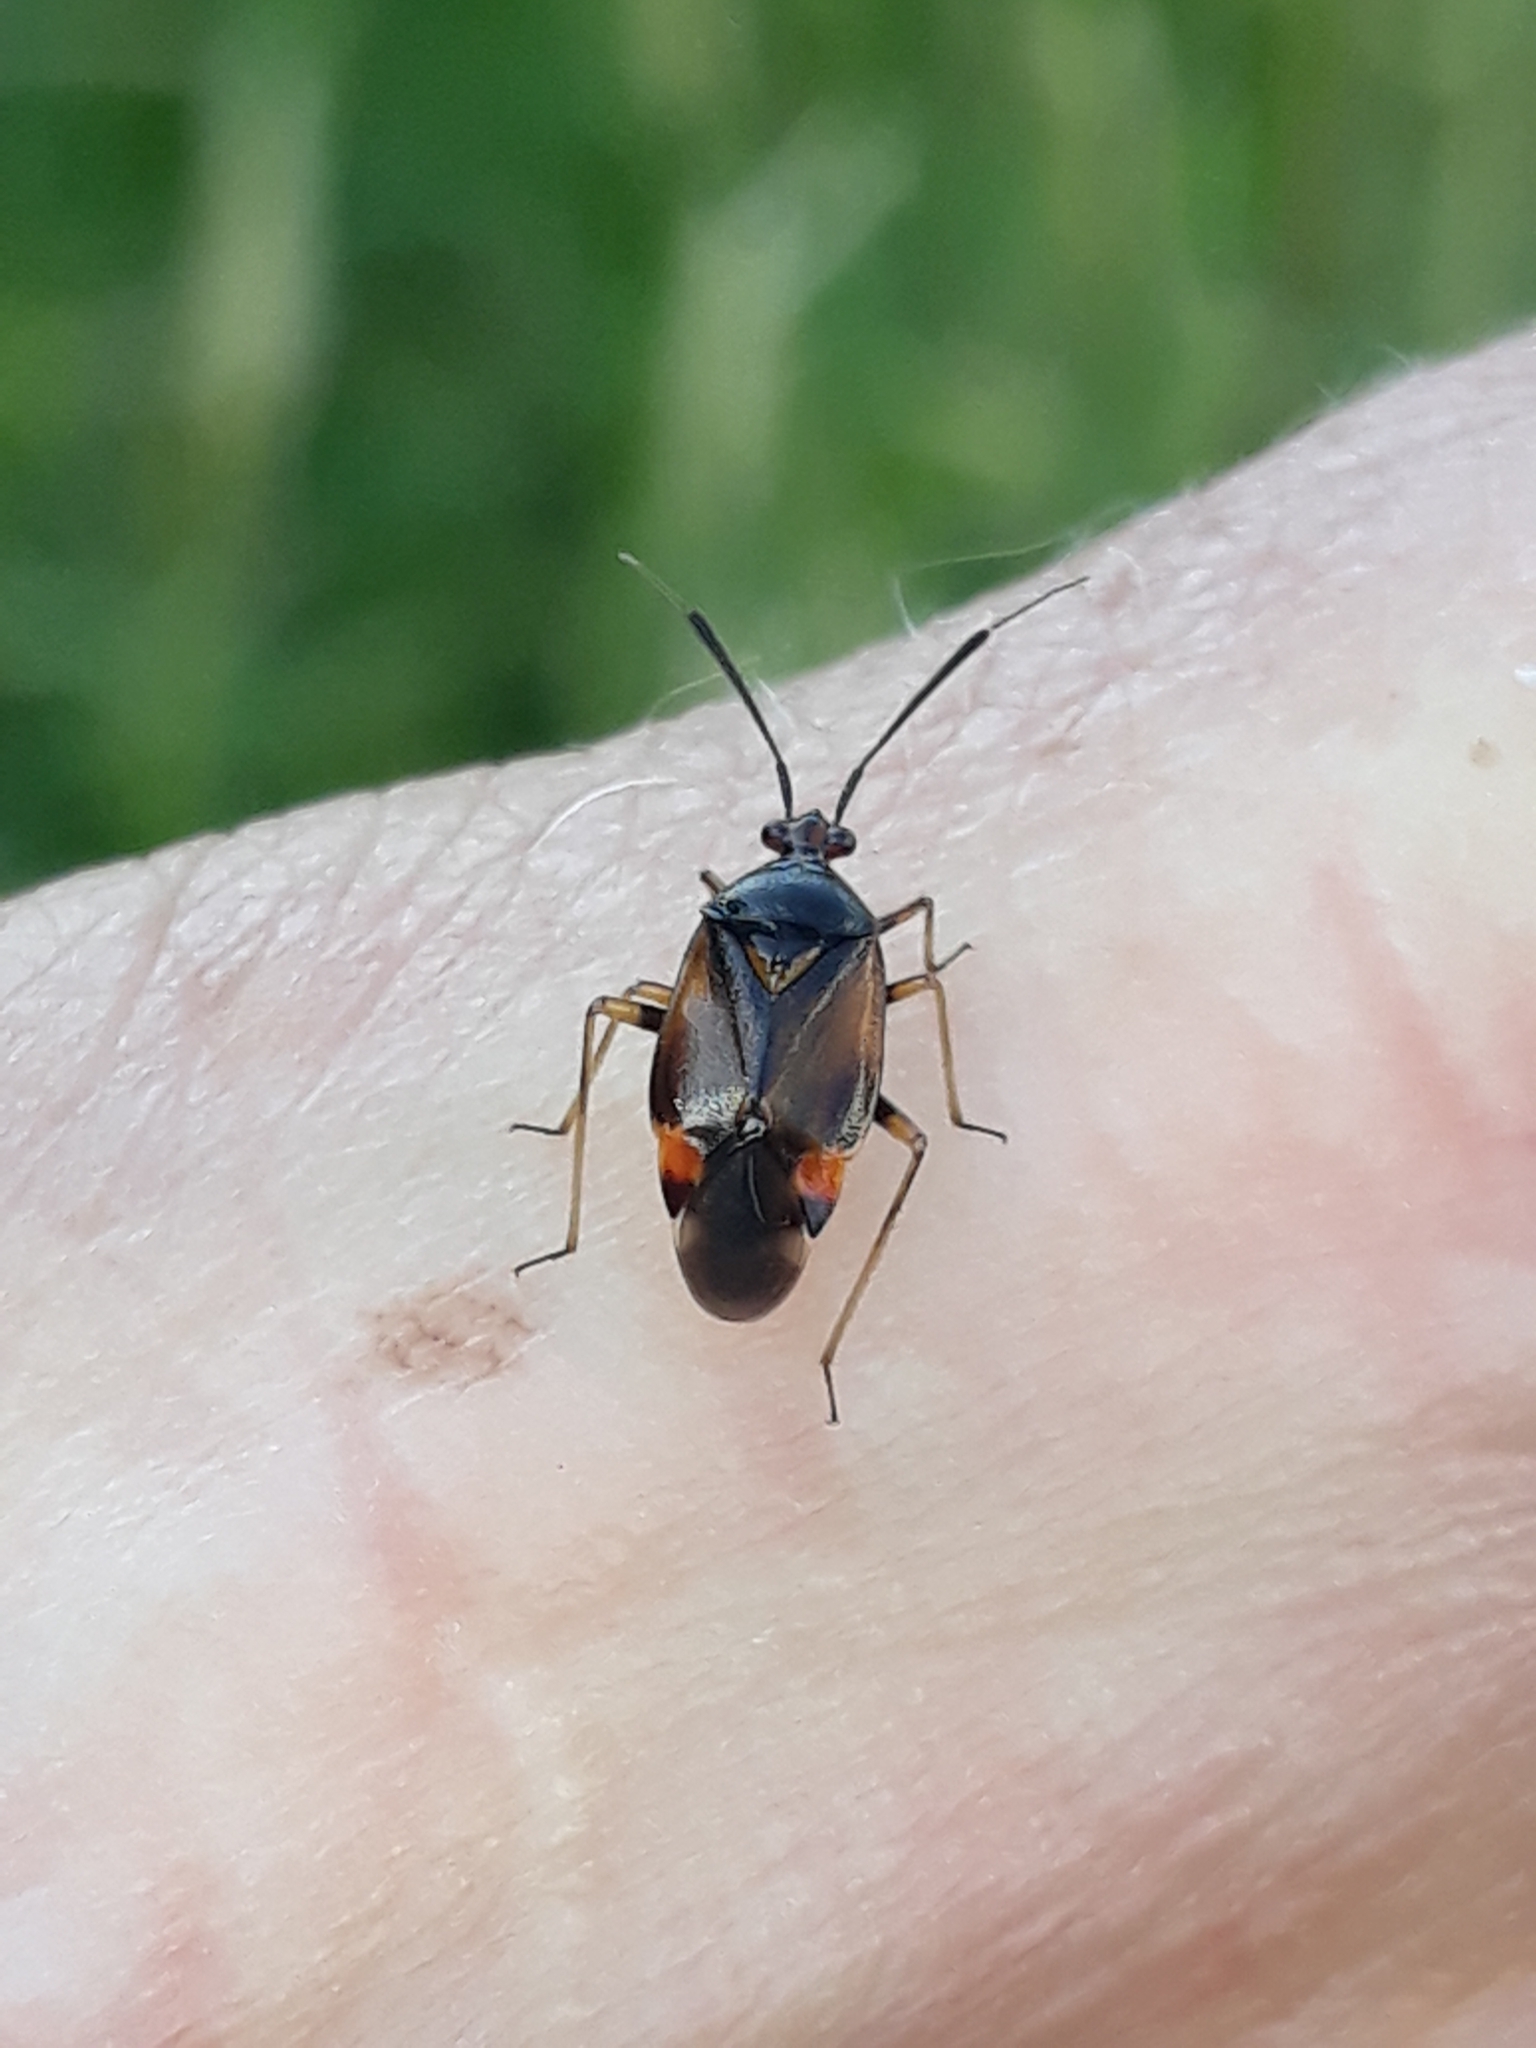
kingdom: Animalia
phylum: Arthropoda
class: Insecta
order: Hemiptera
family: Miridae
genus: Deraeocoris
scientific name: Deraeocoris flavilinea
